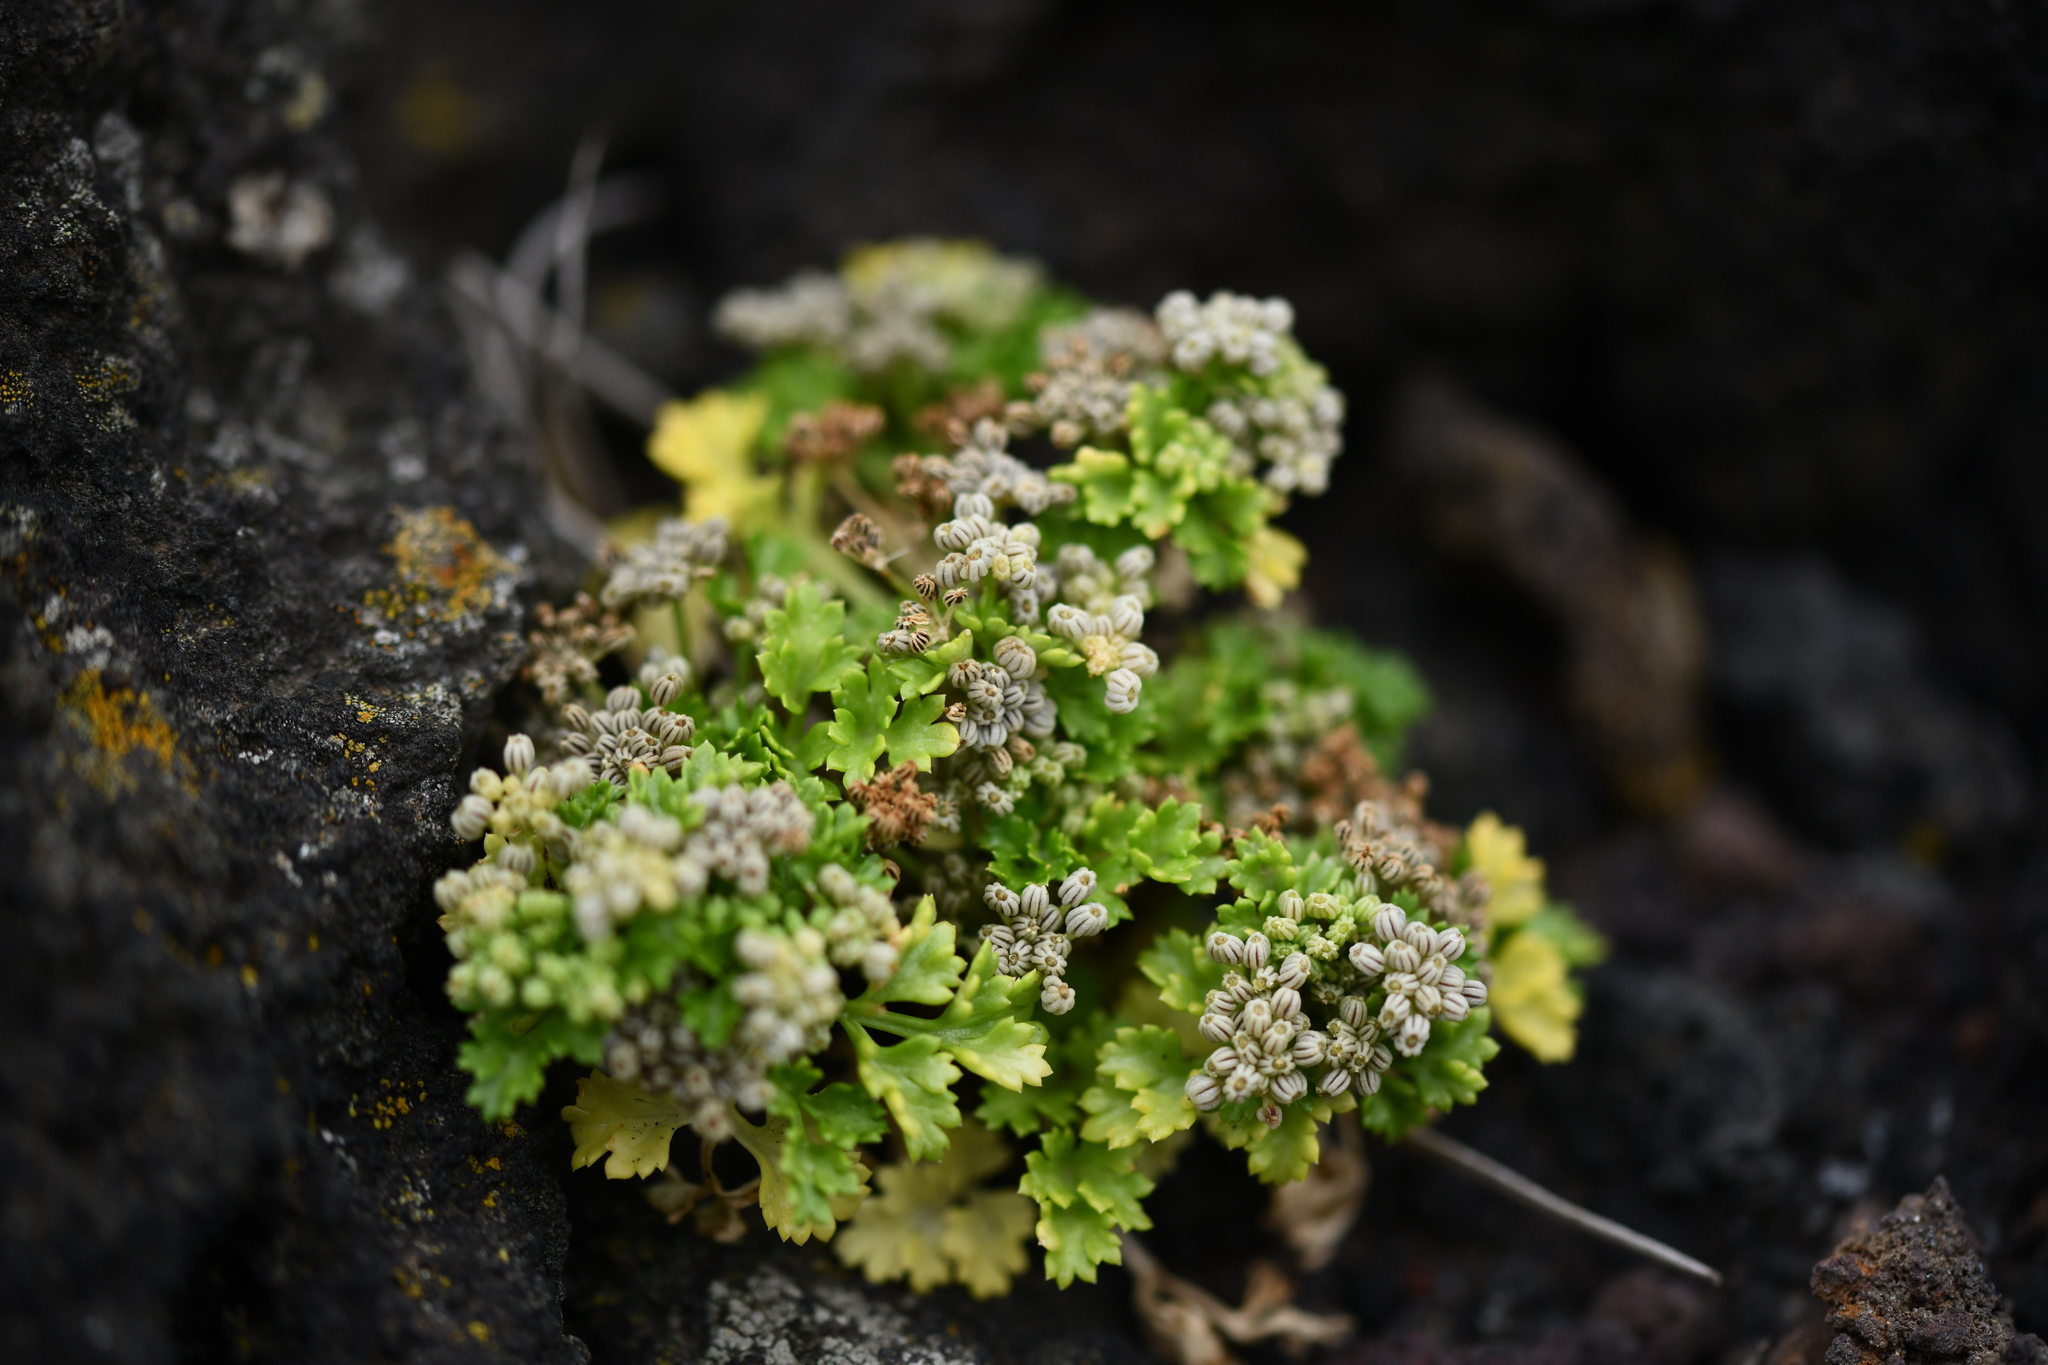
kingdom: Plantae
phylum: Tracheophyta
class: Magnoliopsida
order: Apiales
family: Apiaceae
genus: Apium
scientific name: Apium prostratum
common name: Prostrate marshwort
